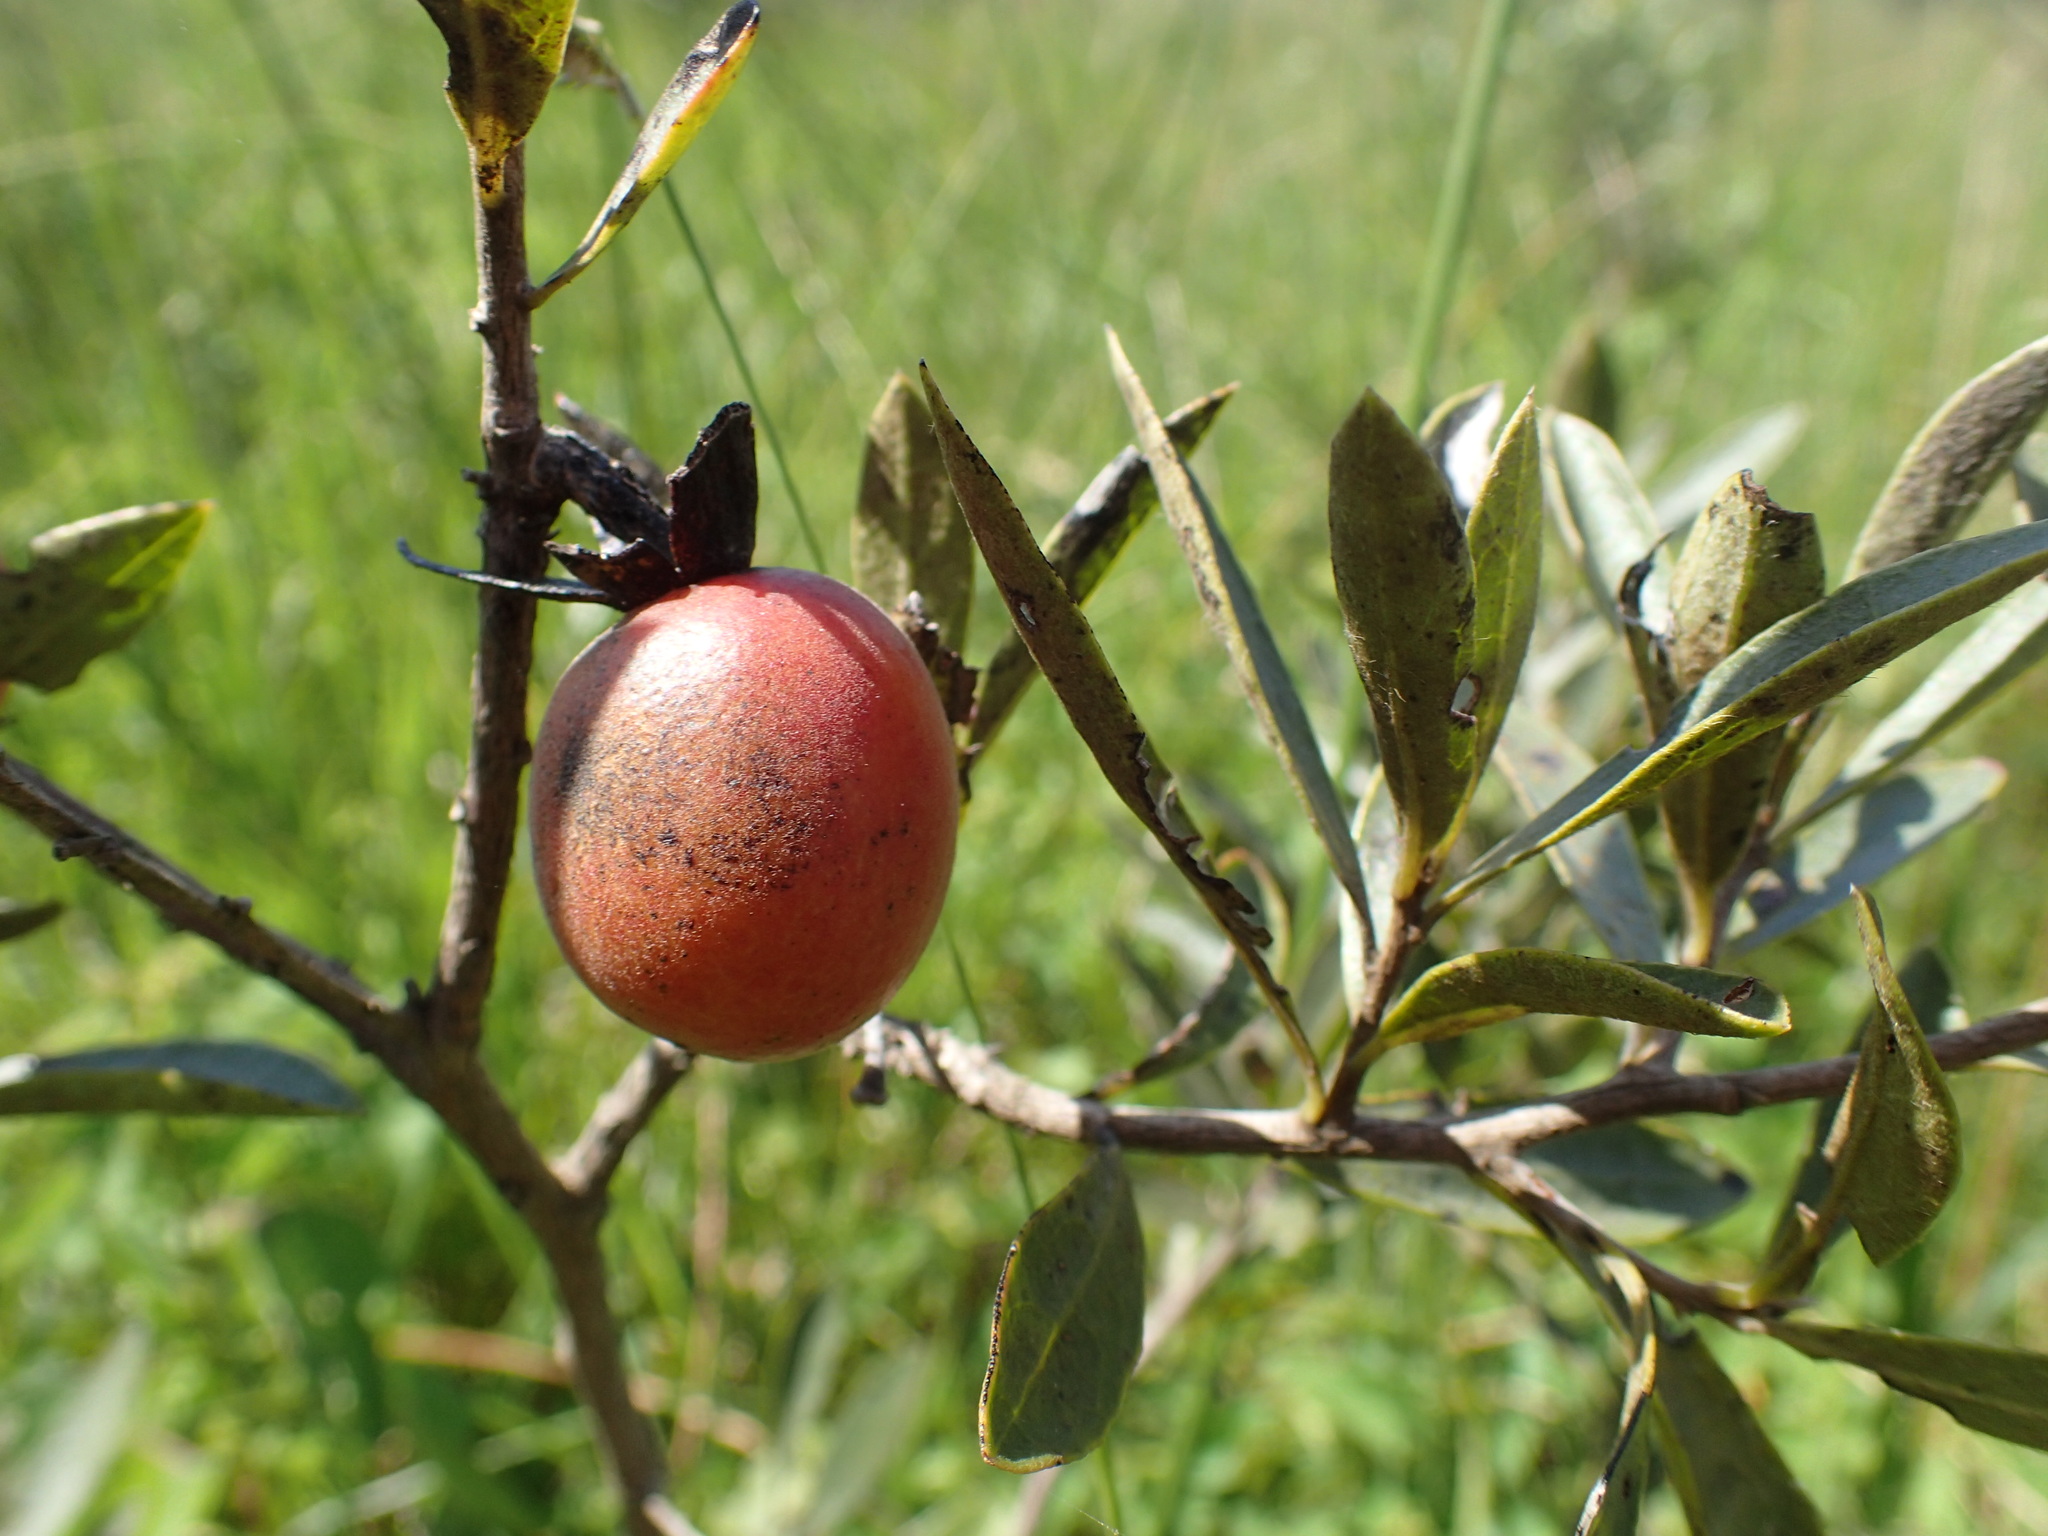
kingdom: Plantae
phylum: Tracheophyta
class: Magnoliopsida
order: Ericales
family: Ebenaceae
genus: Diospyros
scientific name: Diospyros lycioides
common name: Red star apple
